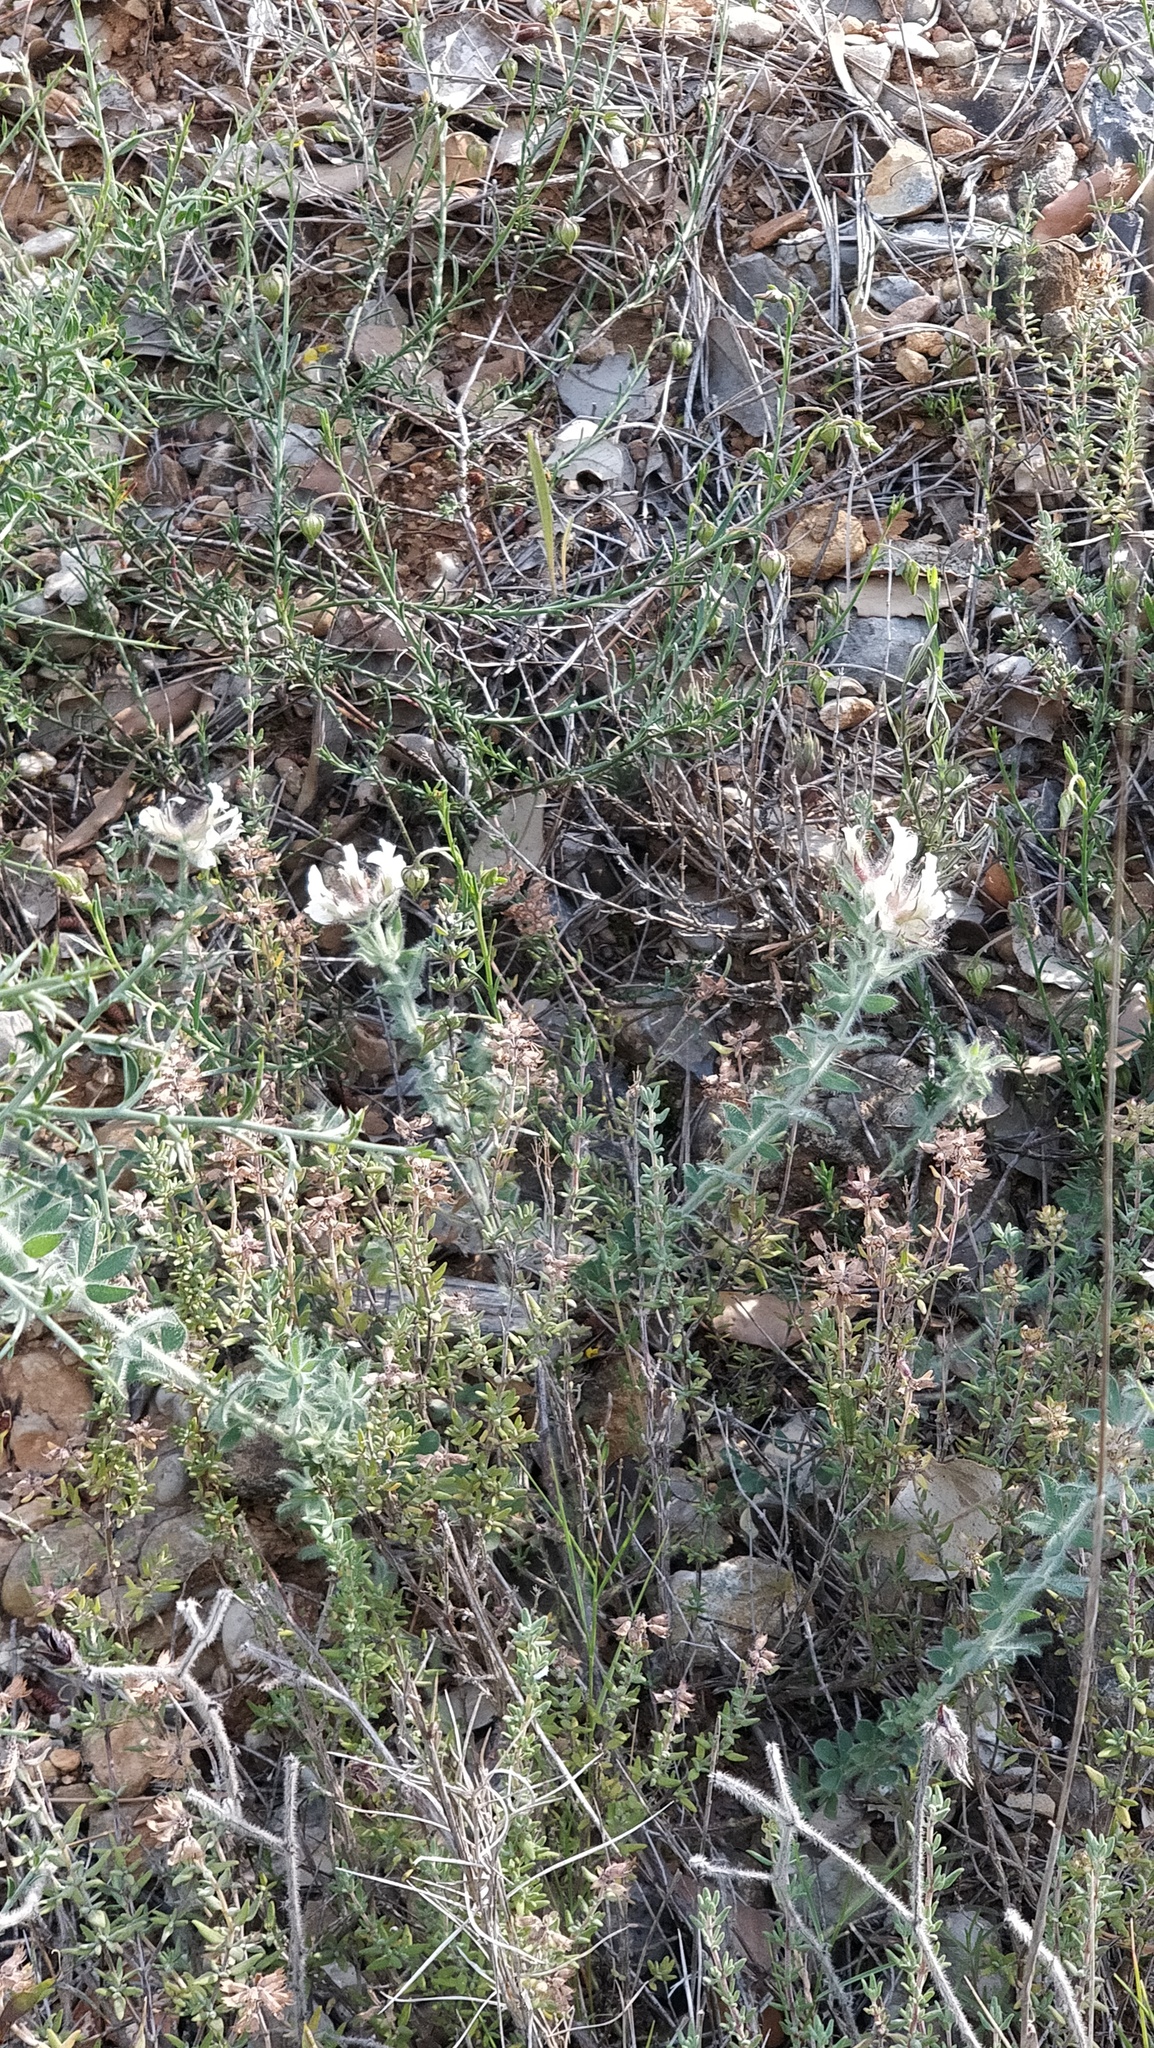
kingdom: Plantae
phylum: Tracheophyta
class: Magnoliopsida
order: Fabales
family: Fabaceae
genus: Lotus
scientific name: Lotus hirsutus
